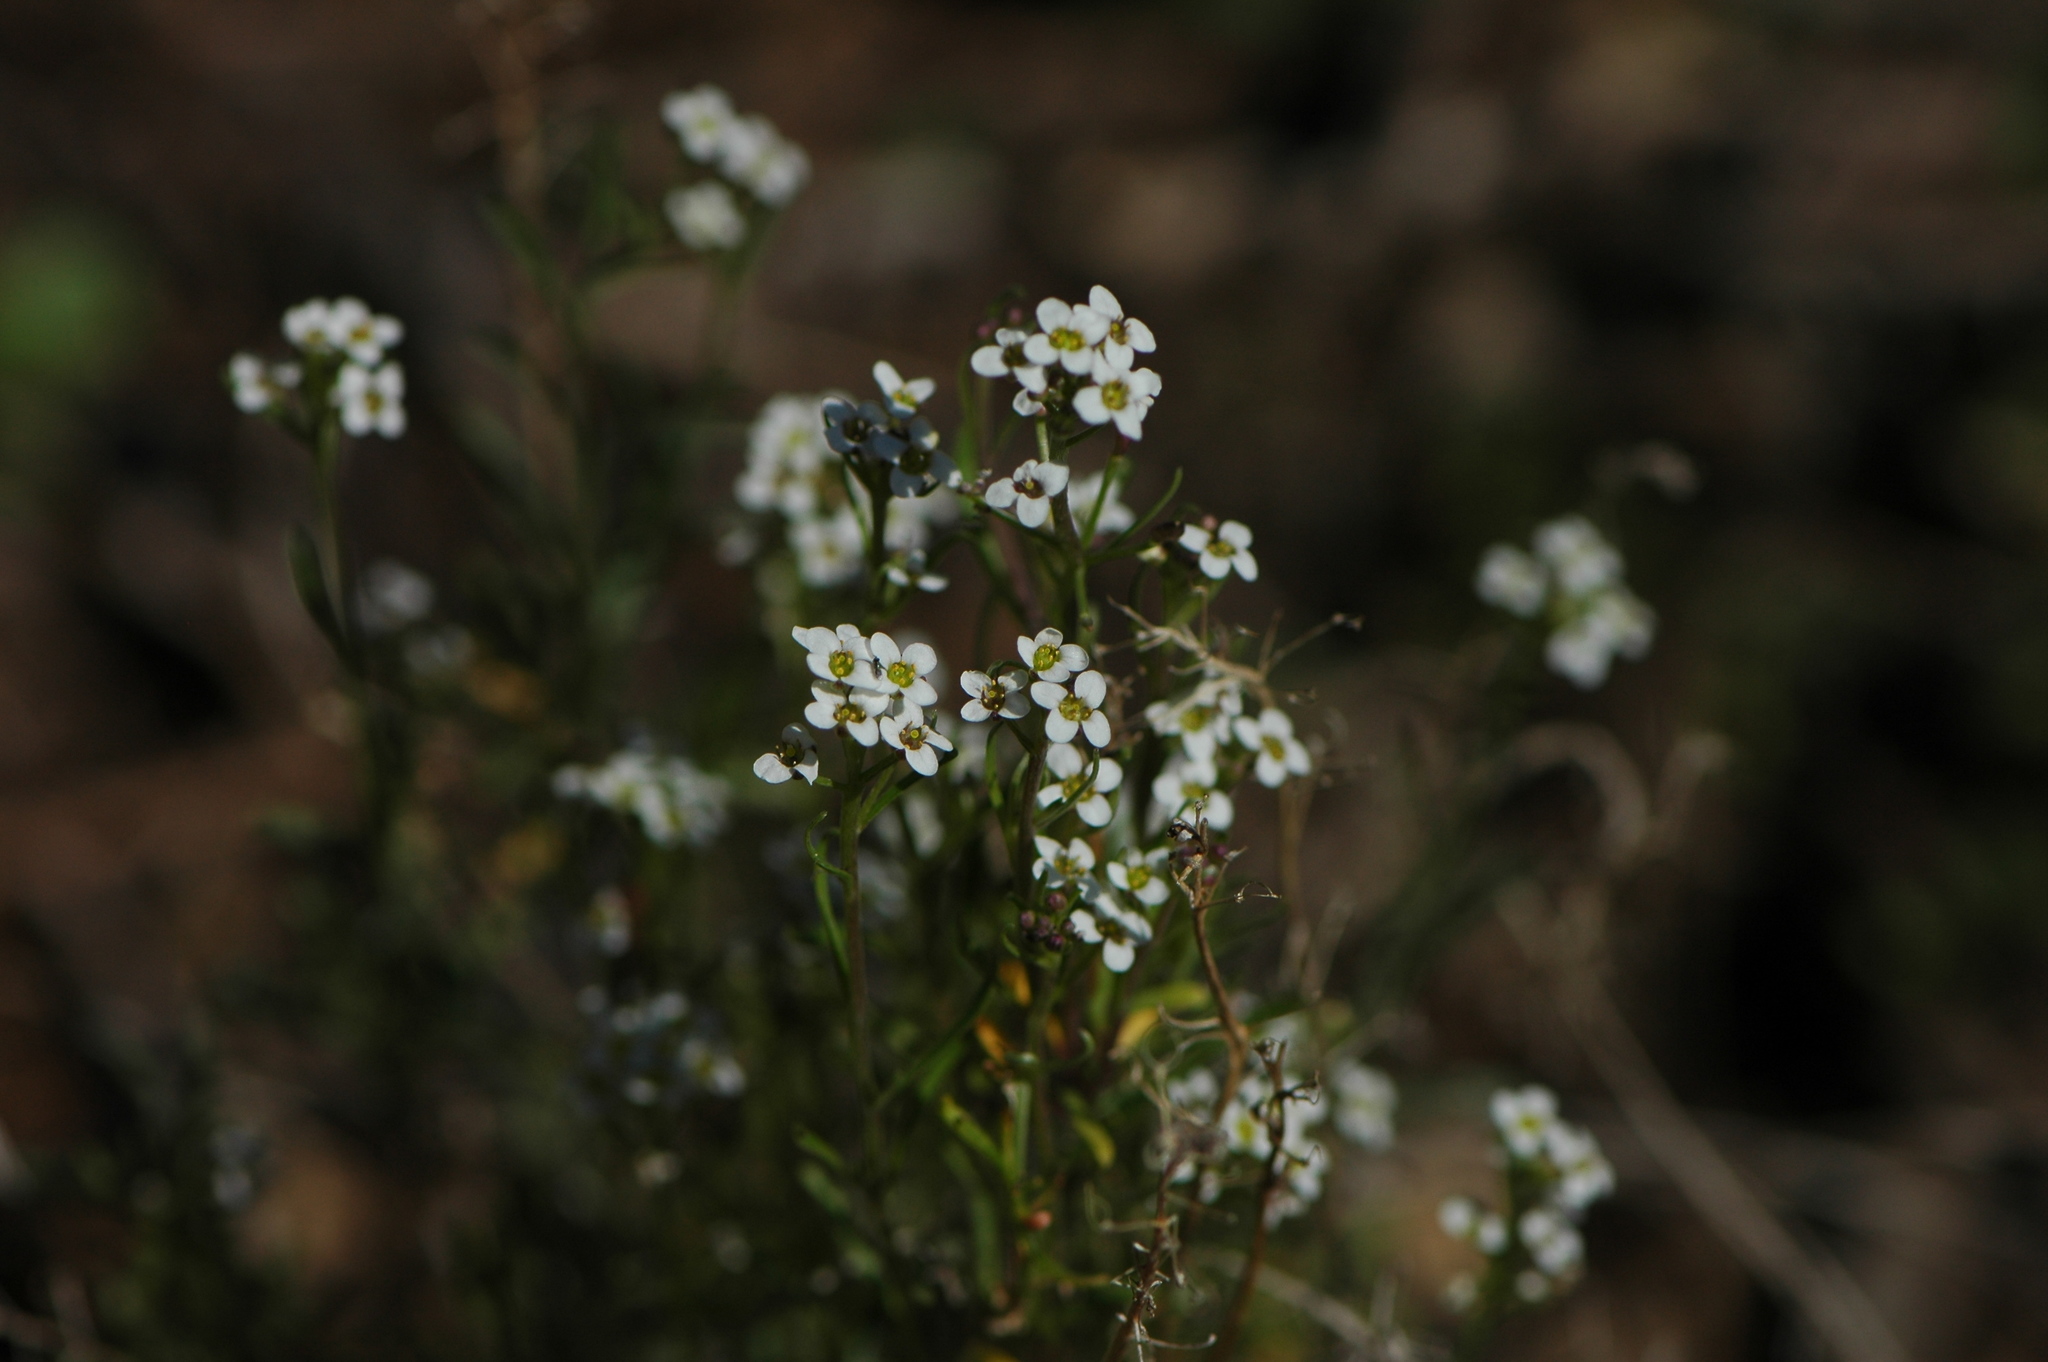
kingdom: Plantae
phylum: Tracheophyta
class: Magnoliopsida
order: Brassicales
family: Brassicaceae
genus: Lobularia
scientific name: Lobularia maritima
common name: Sweet alison
